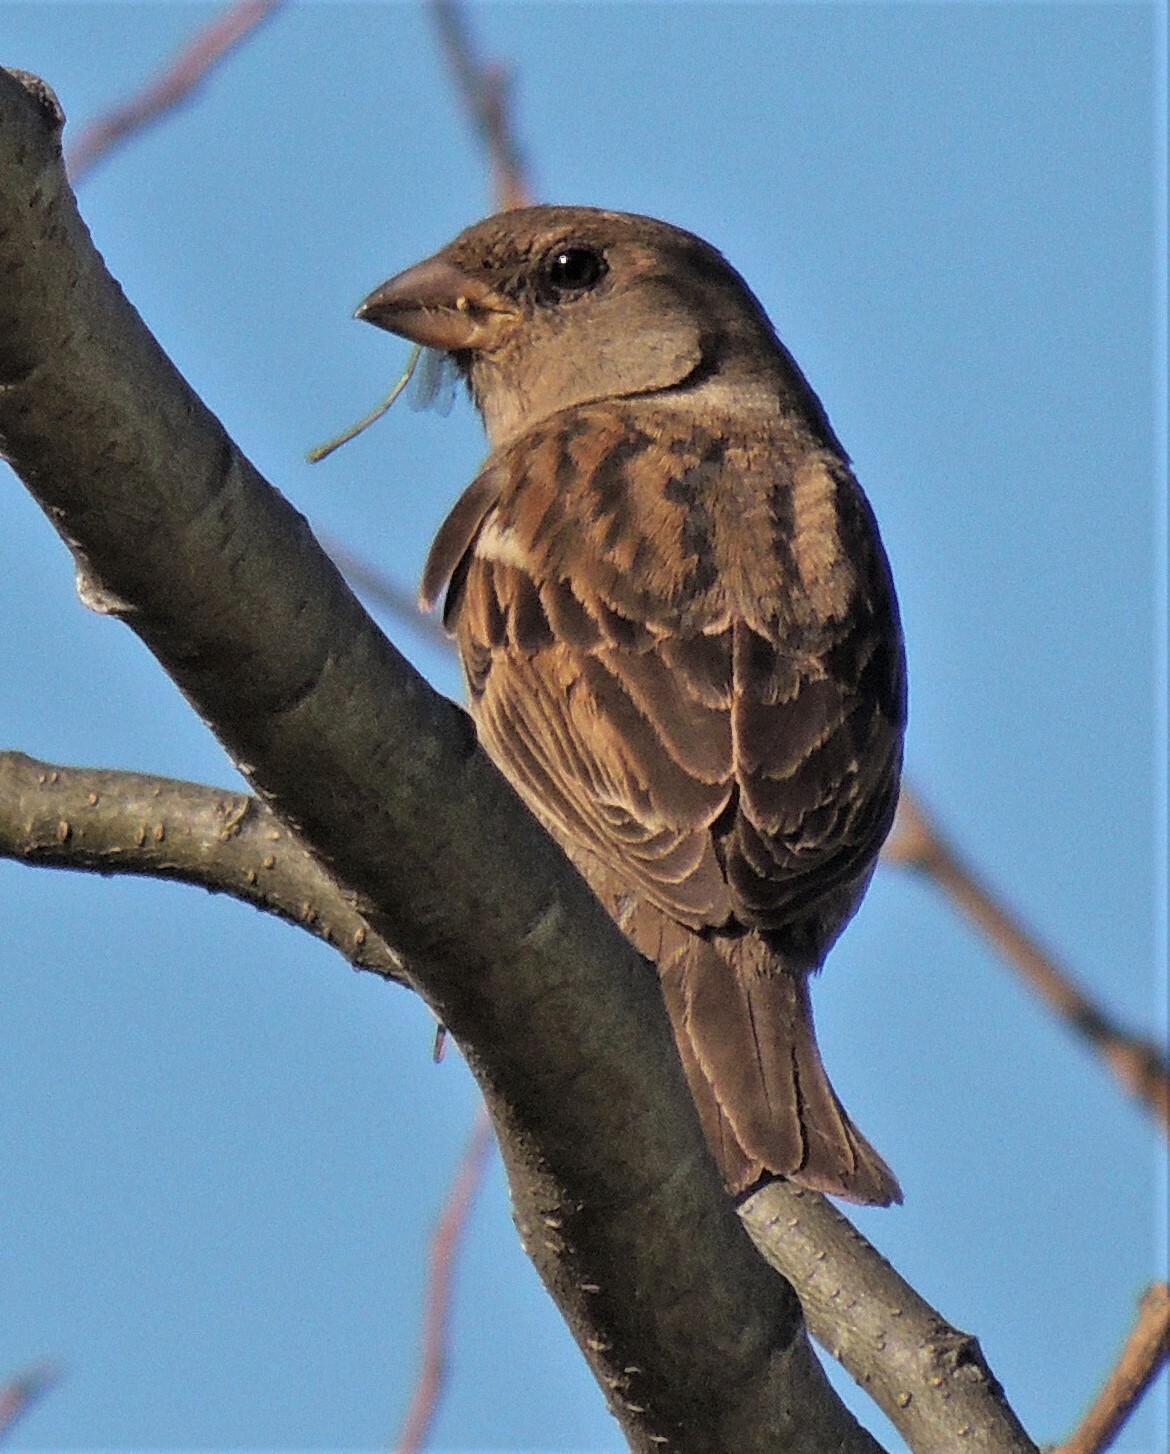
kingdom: Animalia
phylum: Chordata
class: Aves
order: Passeriformes
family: Passeridae
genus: Passer
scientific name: Passer domesticus
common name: House sparrow
